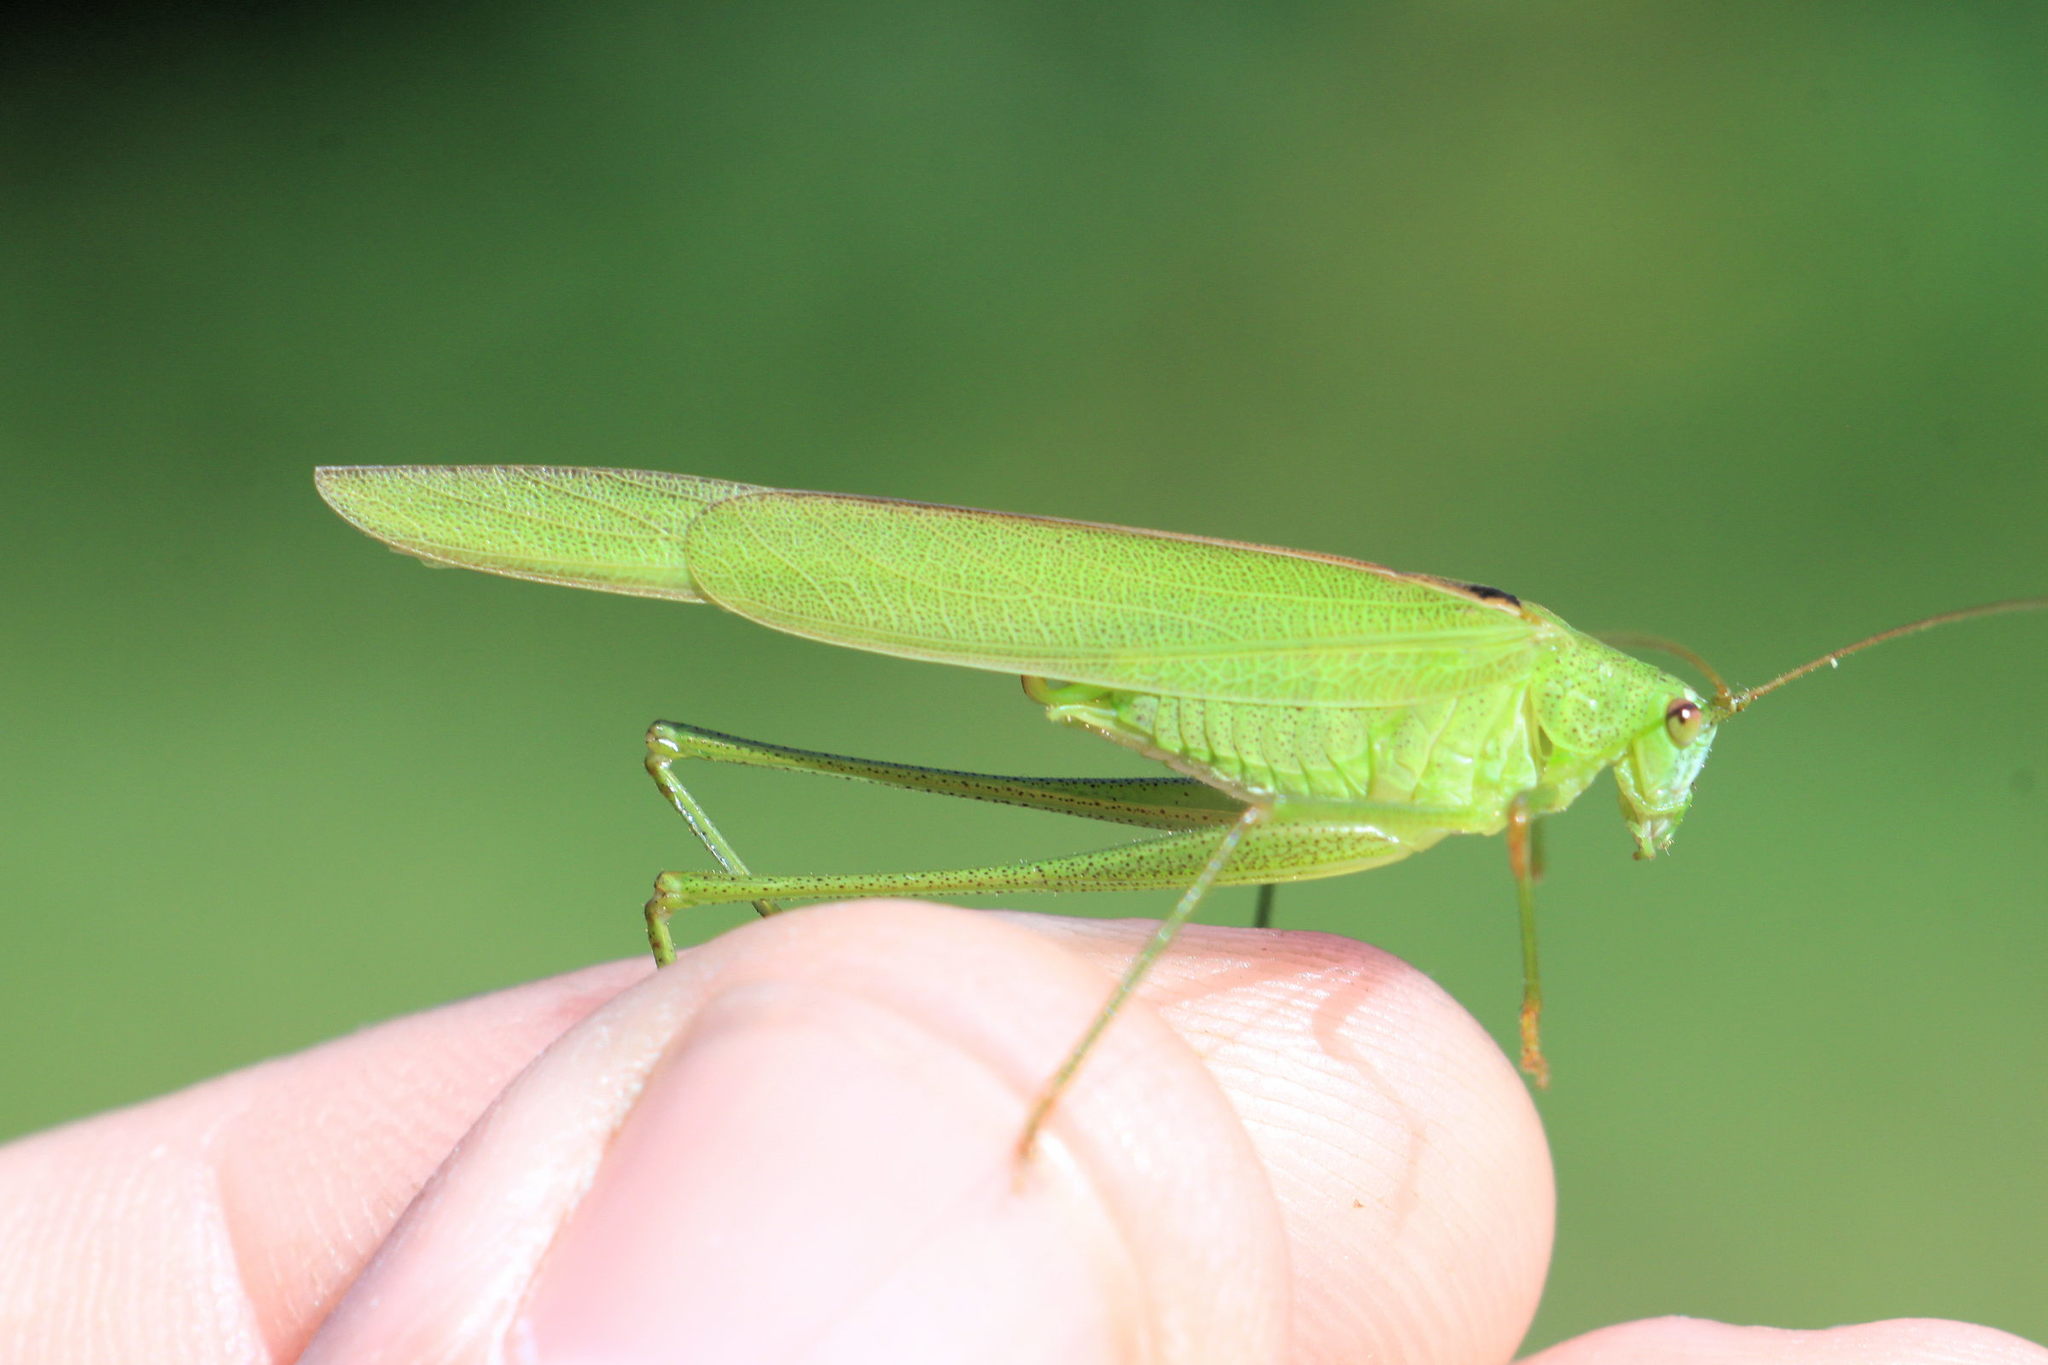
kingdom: Animalia
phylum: Arthropoda
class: Insecta
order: Orthoptera
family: Tettigoniidae
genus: Phaneroptera
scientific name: Phaneroptera falcata
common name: Sickle-bearing bush-cricket
